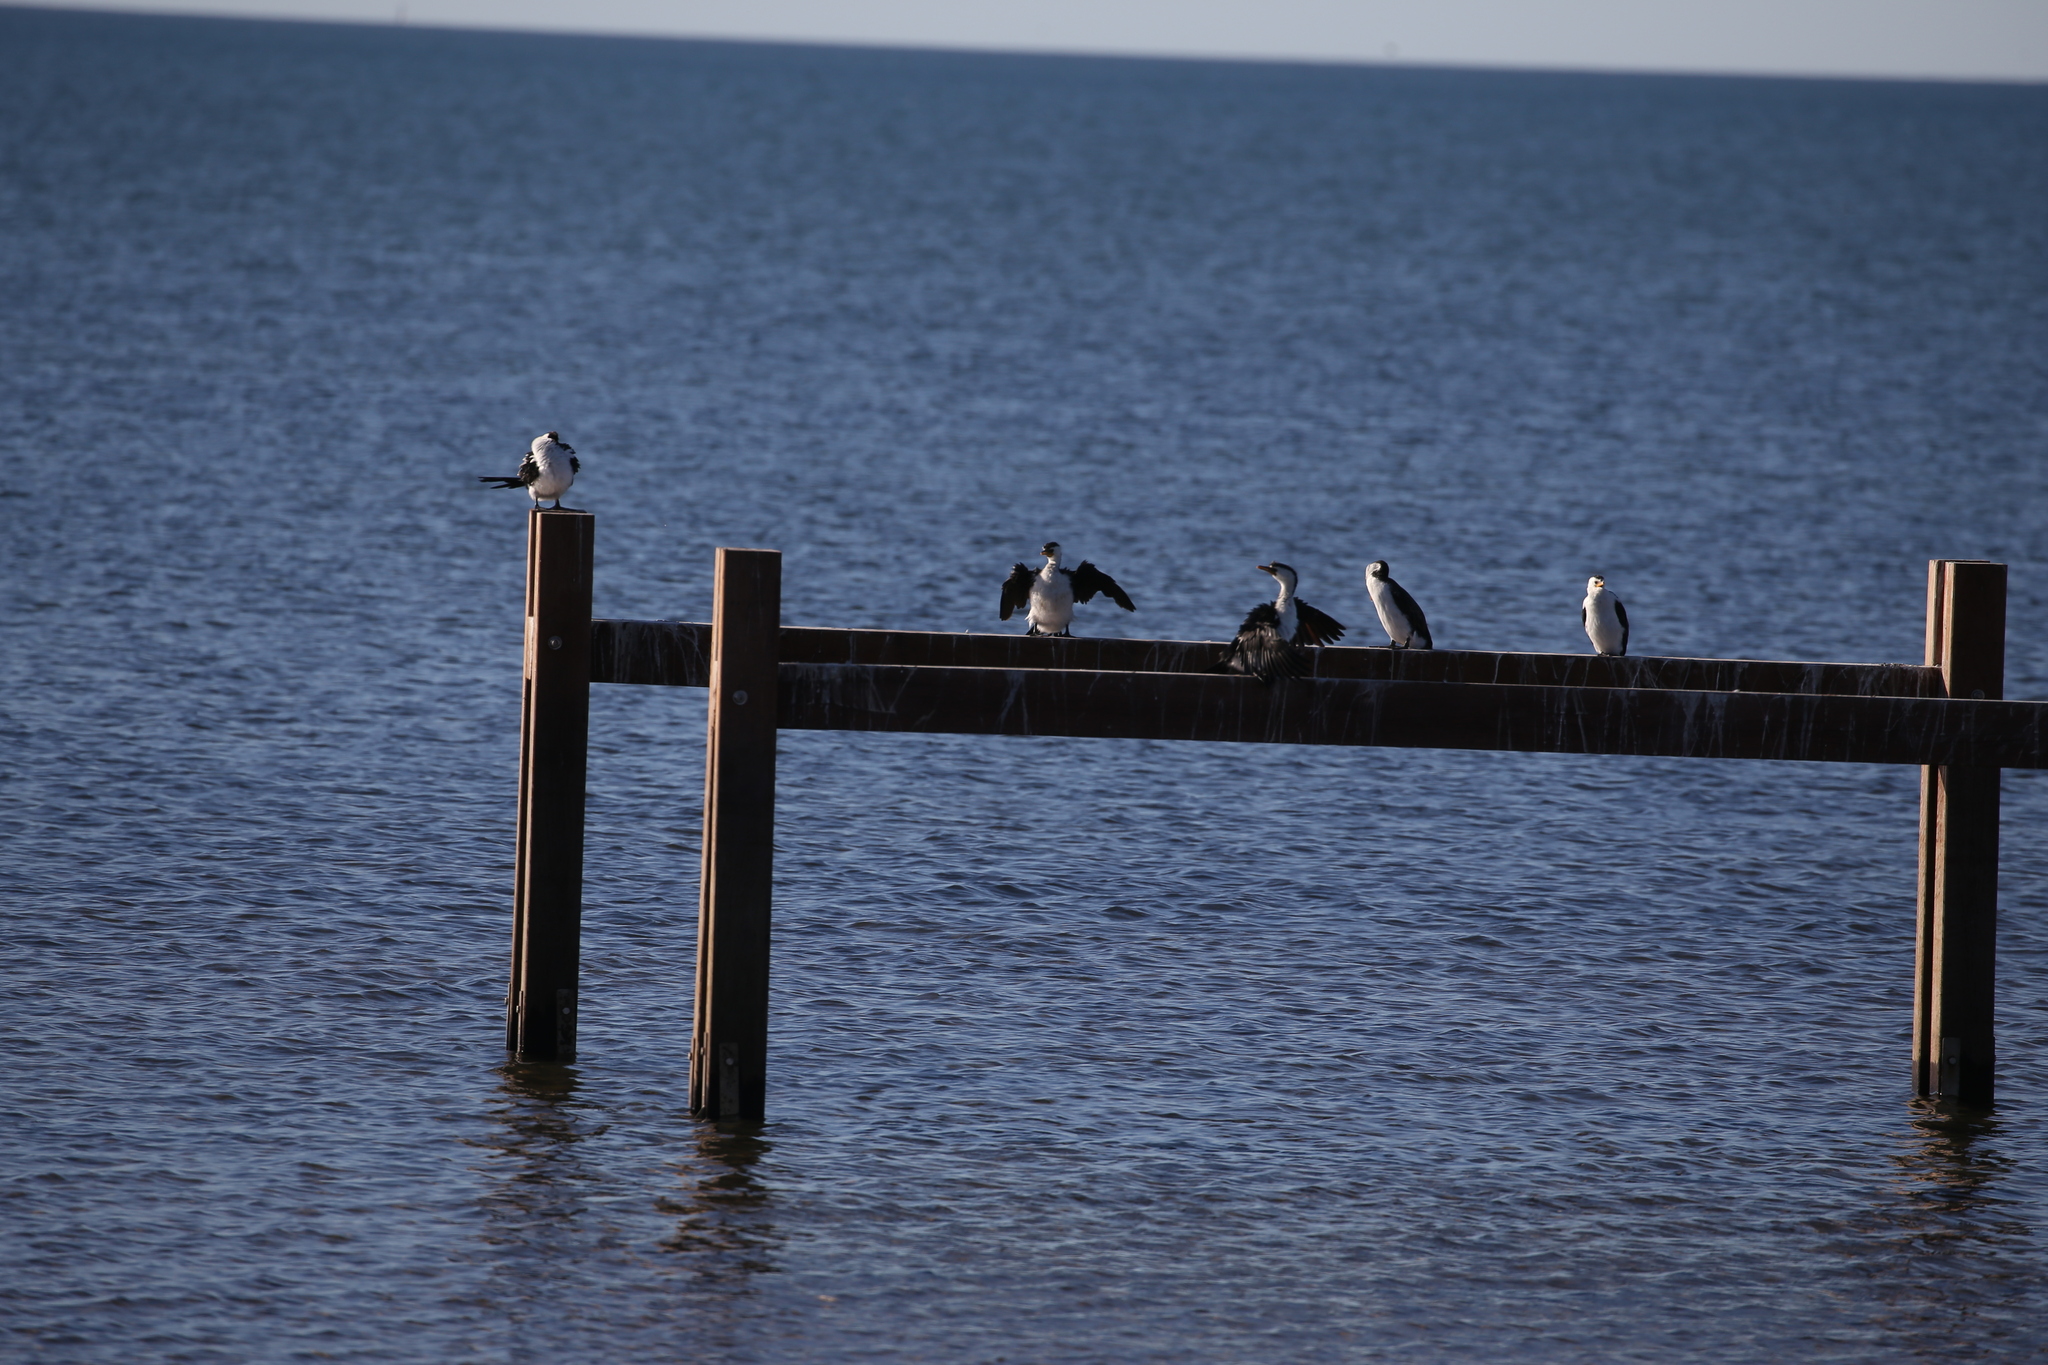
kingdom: Animalia
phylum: Chordata
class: Aves
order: Suliformes
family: Phalacrocoracidae
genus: Microcarbo
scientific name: Microcarbo melanoleucos
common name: Little pied cormorant
